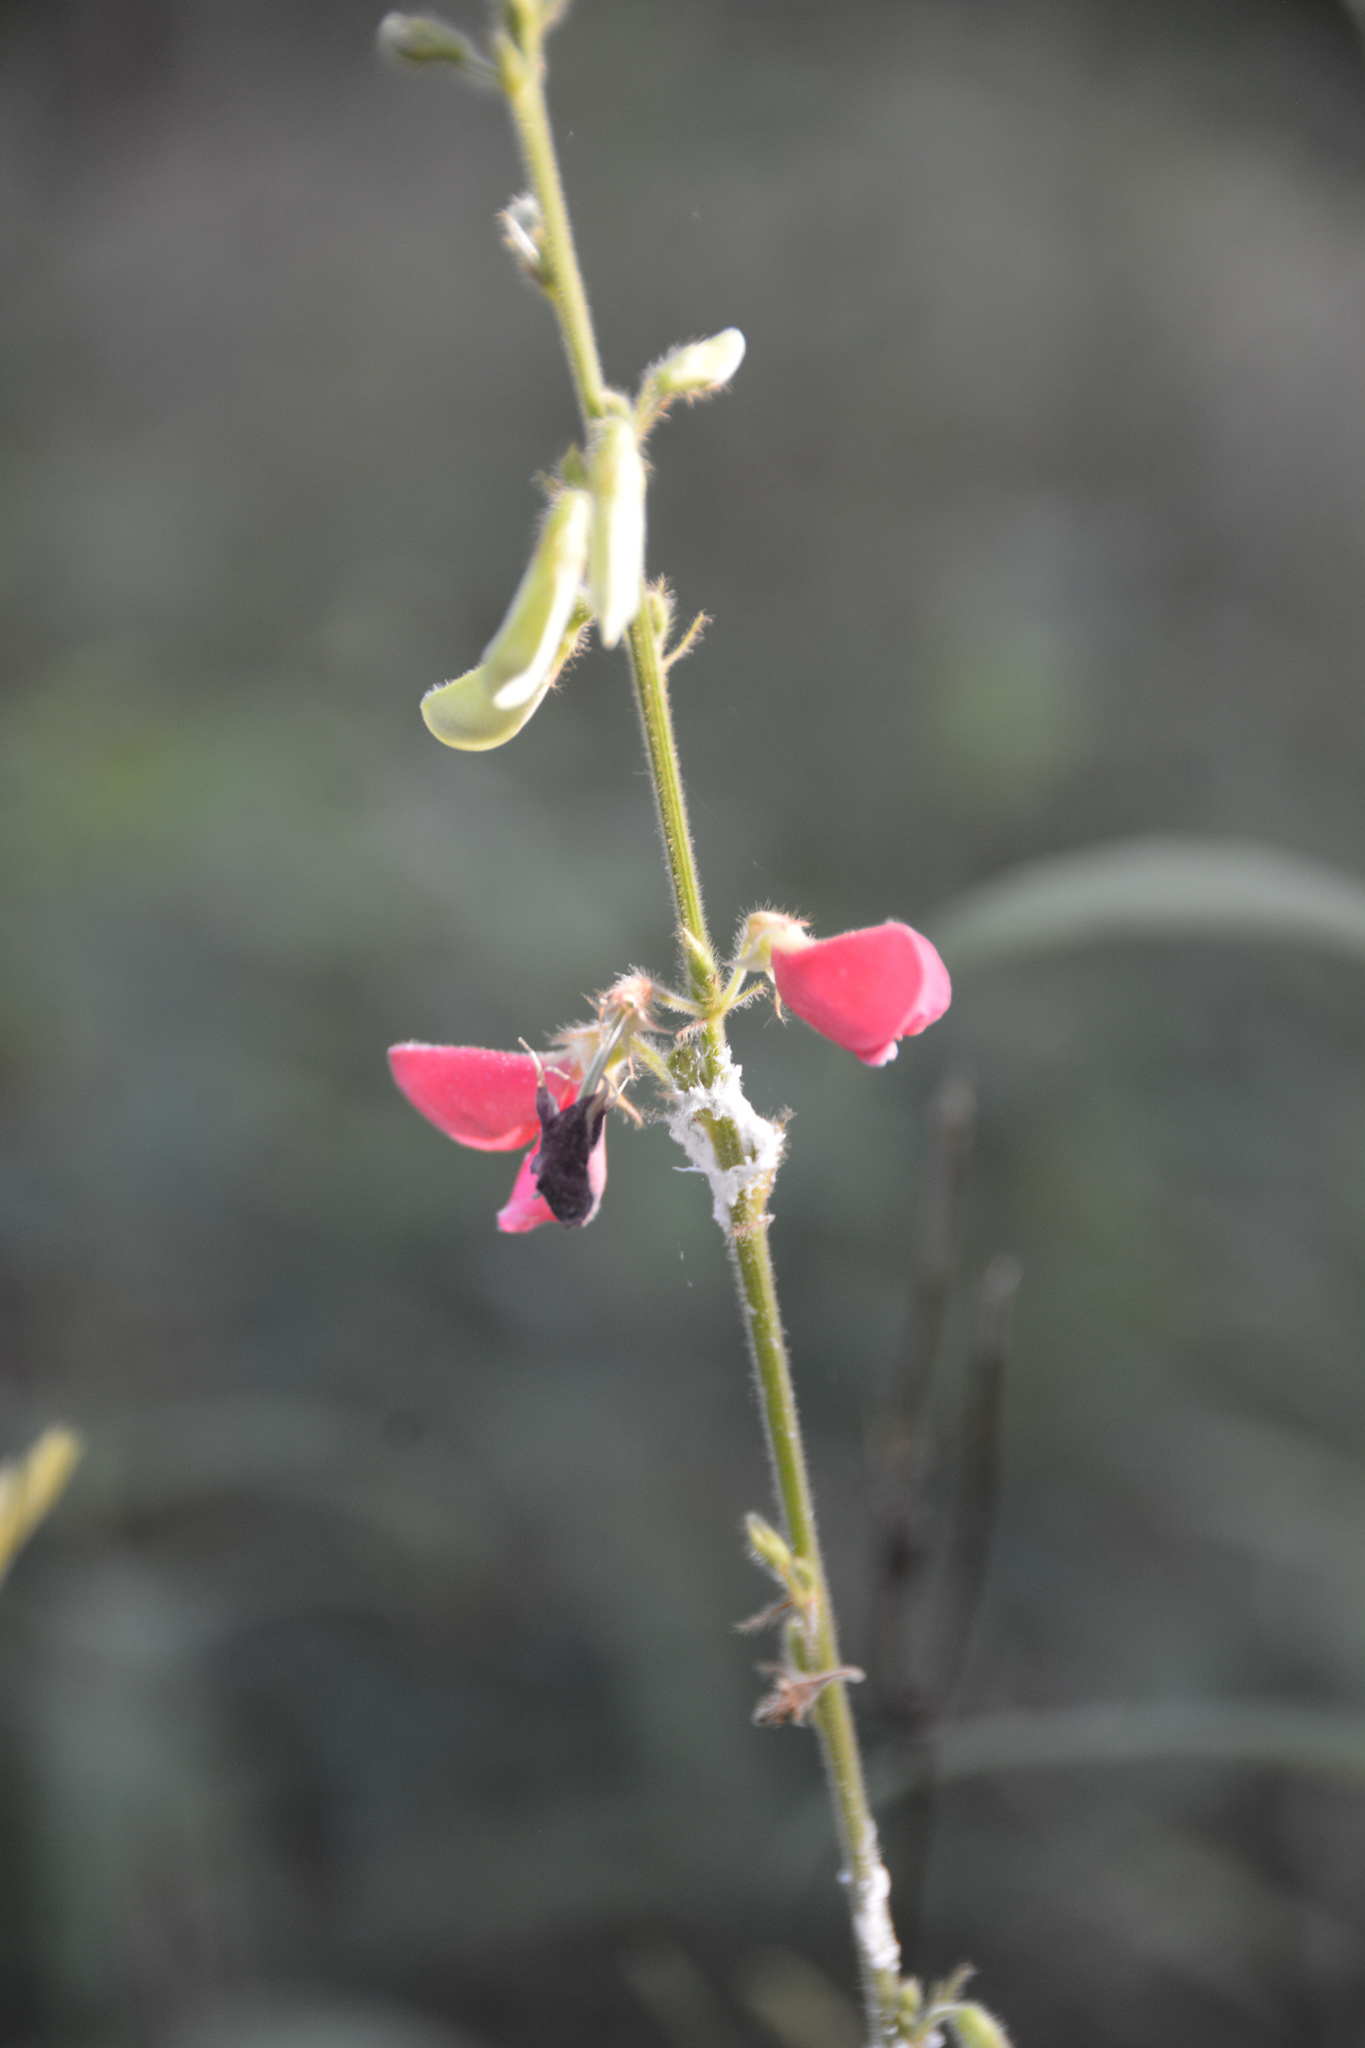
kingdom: Plantae
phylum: Tracheophyta
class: Magnoliopsida
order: Fabales
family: Fabaceae
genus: Tephrosia
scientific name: Tephrosia onobrychoides
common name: Multi-bloom hoary-pea
